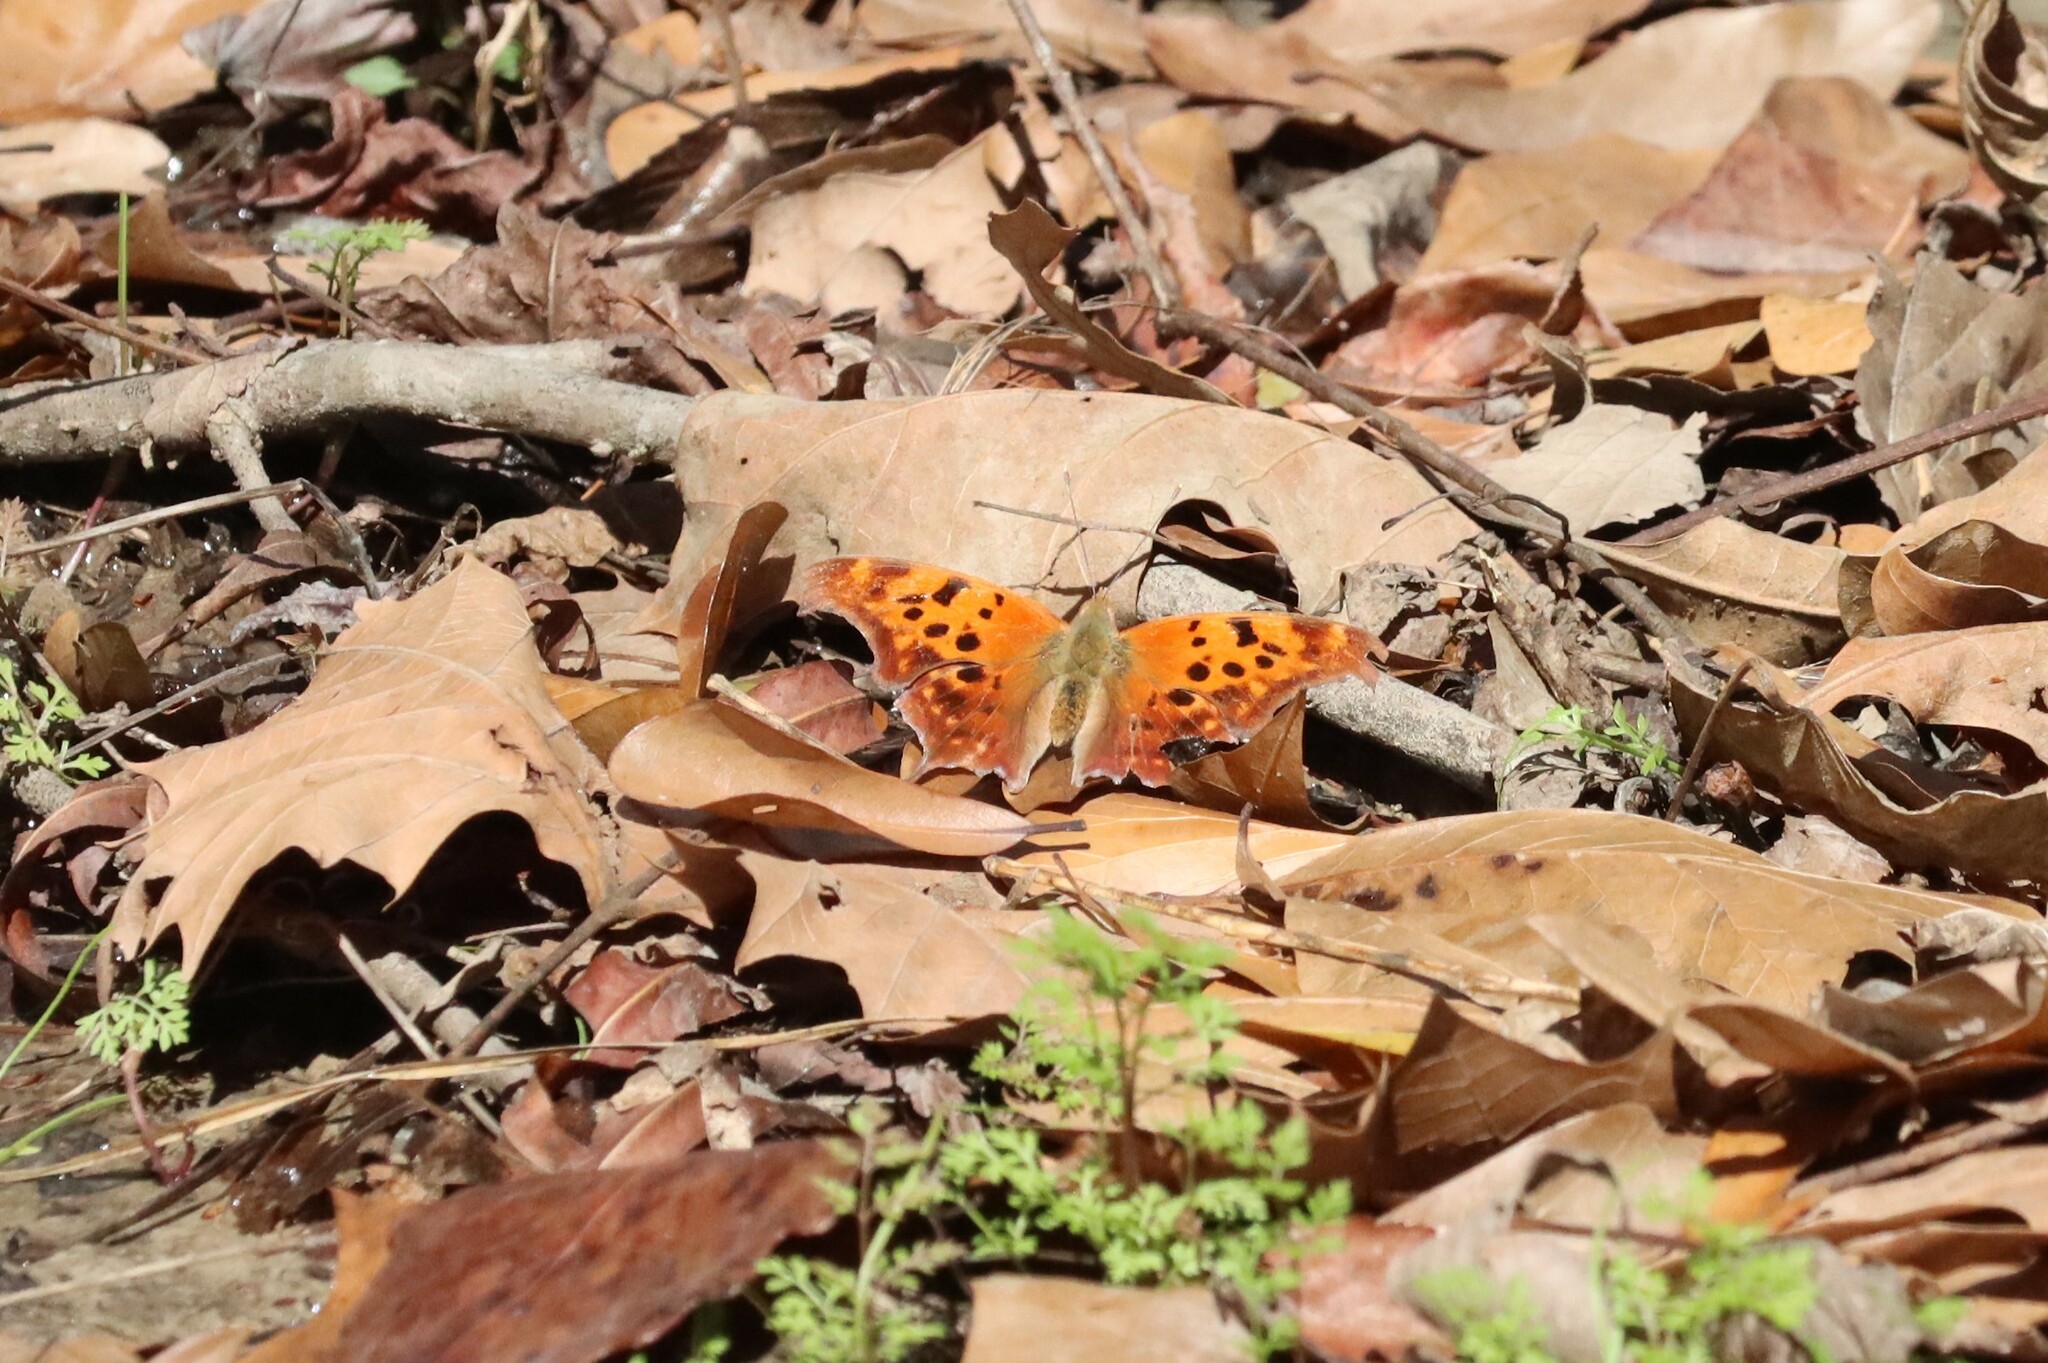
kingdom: Animalia
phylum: Arthropoda
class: Insecta
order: Lepidoptera
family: Nymphalidae
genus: Polygonia
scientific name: Polygonia interrogationis
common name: Question mark
